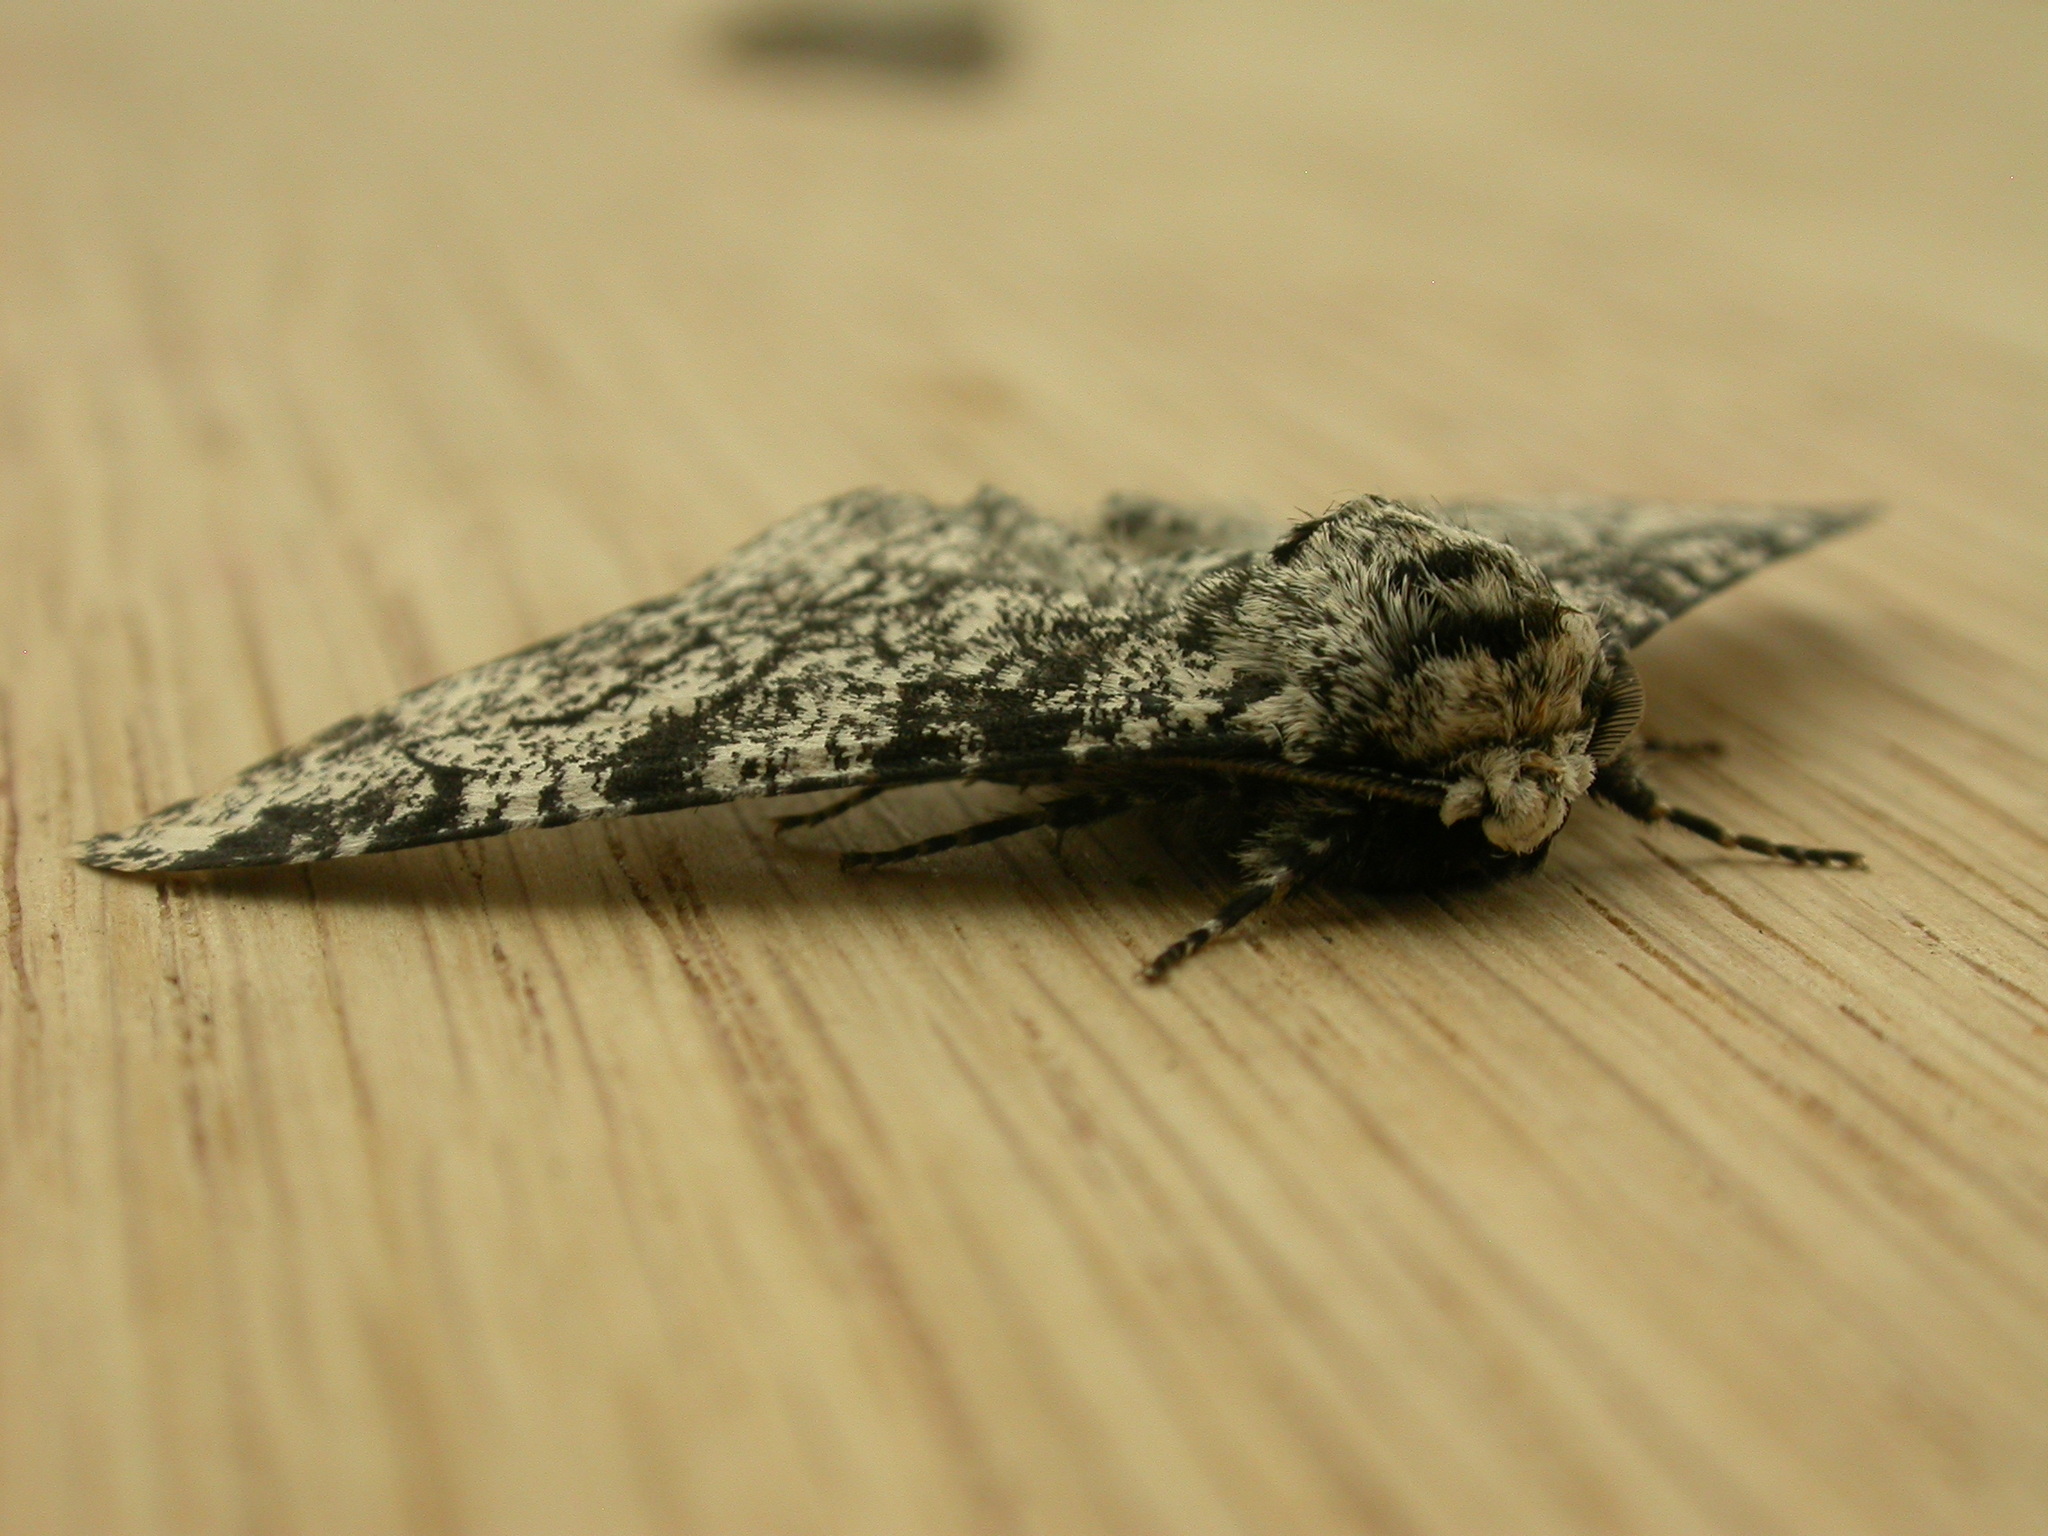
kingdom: Animalia
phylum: Arthropoda
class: Insecta
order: Lepidoptera
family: Geometridae
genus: Biston
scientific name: Biston betularia
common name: Peppered moth
